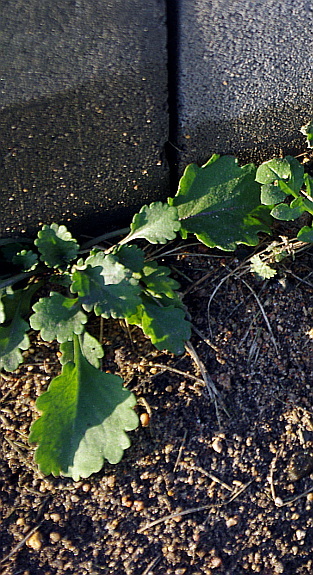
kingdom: Plantae
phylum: Tracheophyta
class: Magnoliopsida
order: Asterales
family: Asteraceae
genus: Leucanthemum
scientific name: Leucanthemum vulgare
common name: Oxeye daisy
